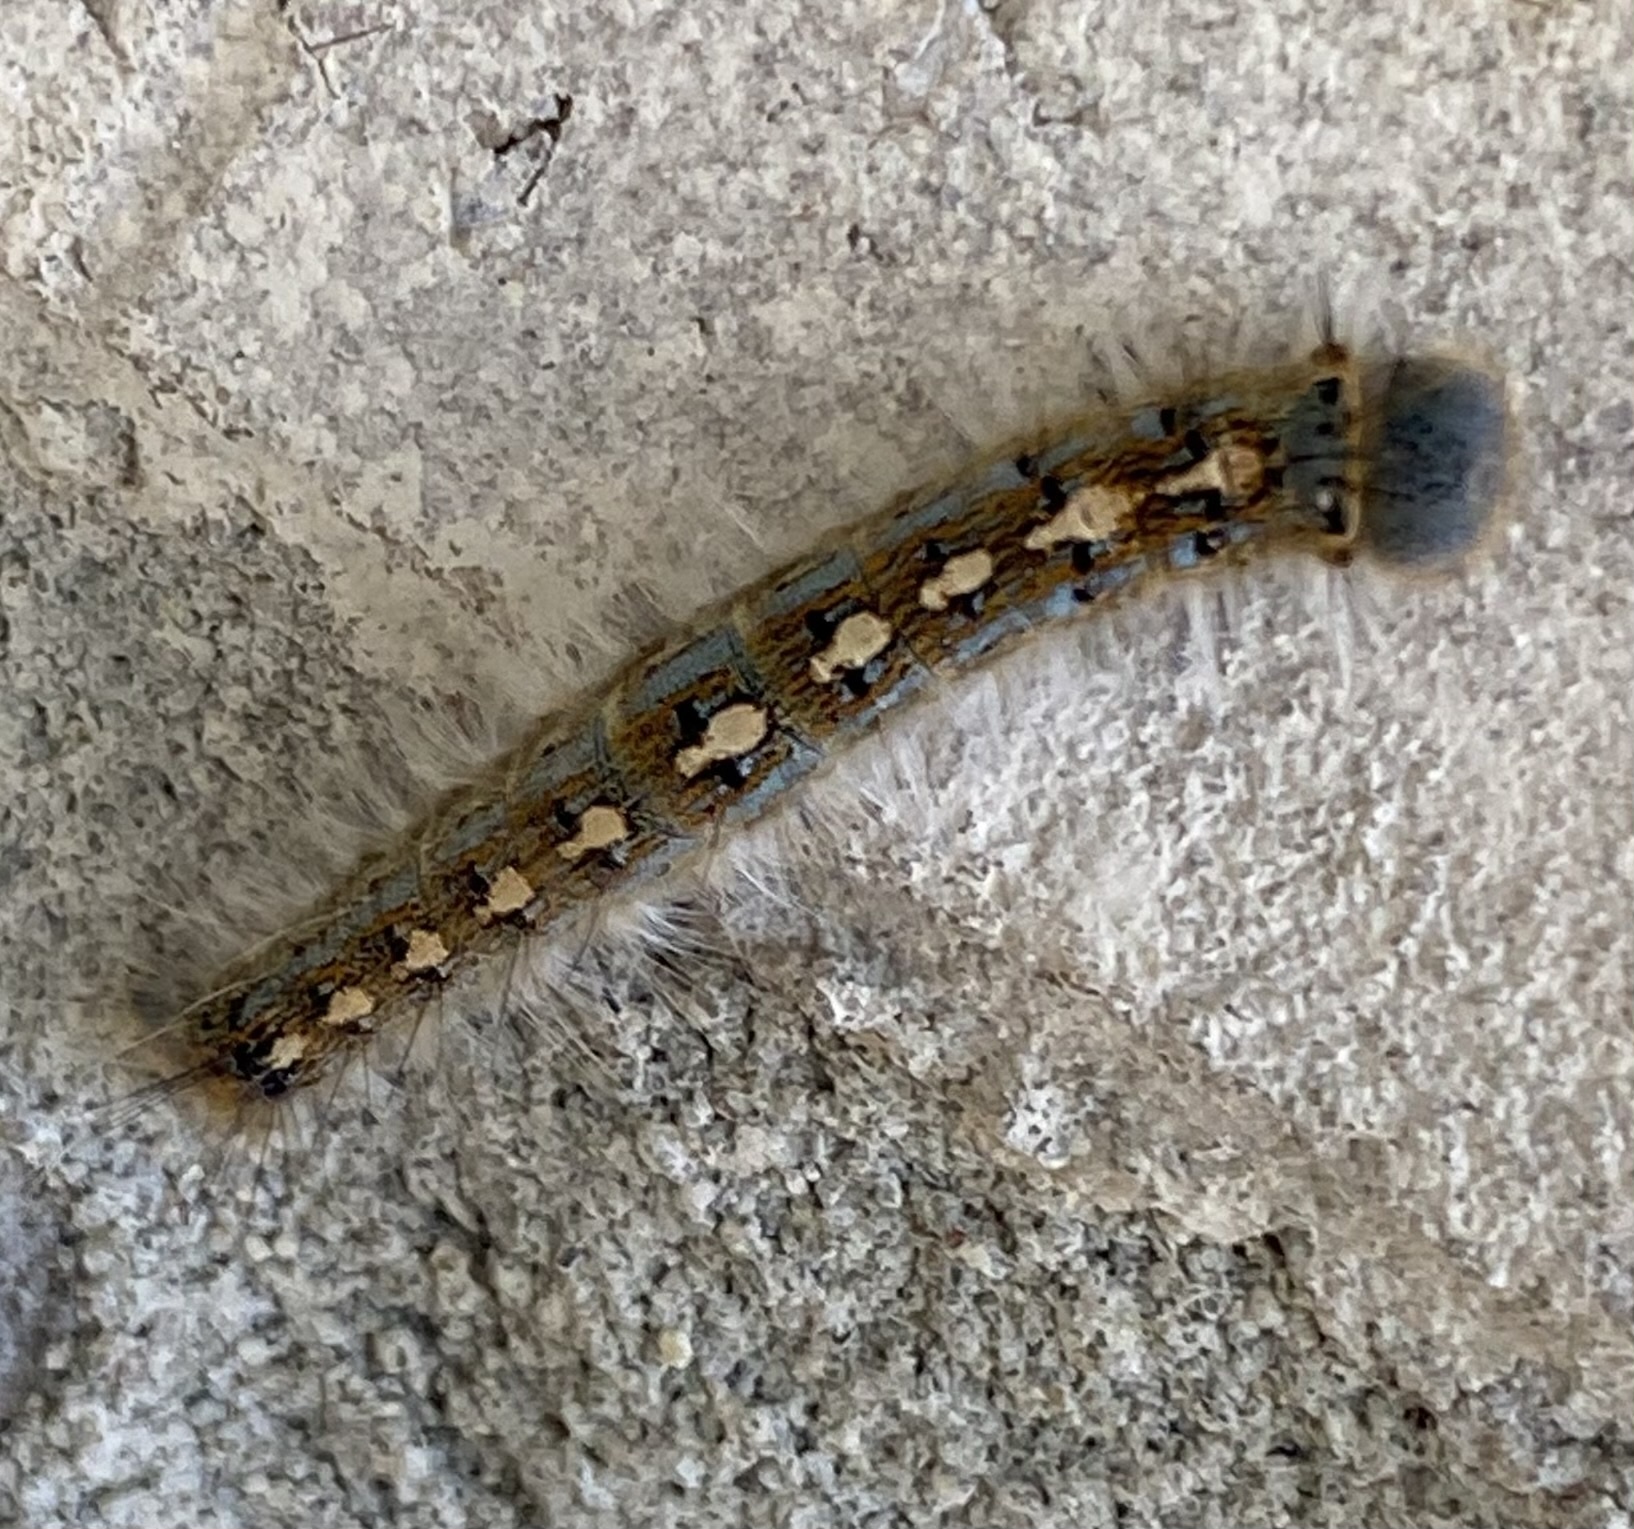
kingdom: Animalia
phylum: Arthropoda
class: Insecta
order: Lepidoptera
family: Lasiocampidae
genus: Malacosoma
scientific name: Malacosoma disstria
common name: Forest tent caterpillar
